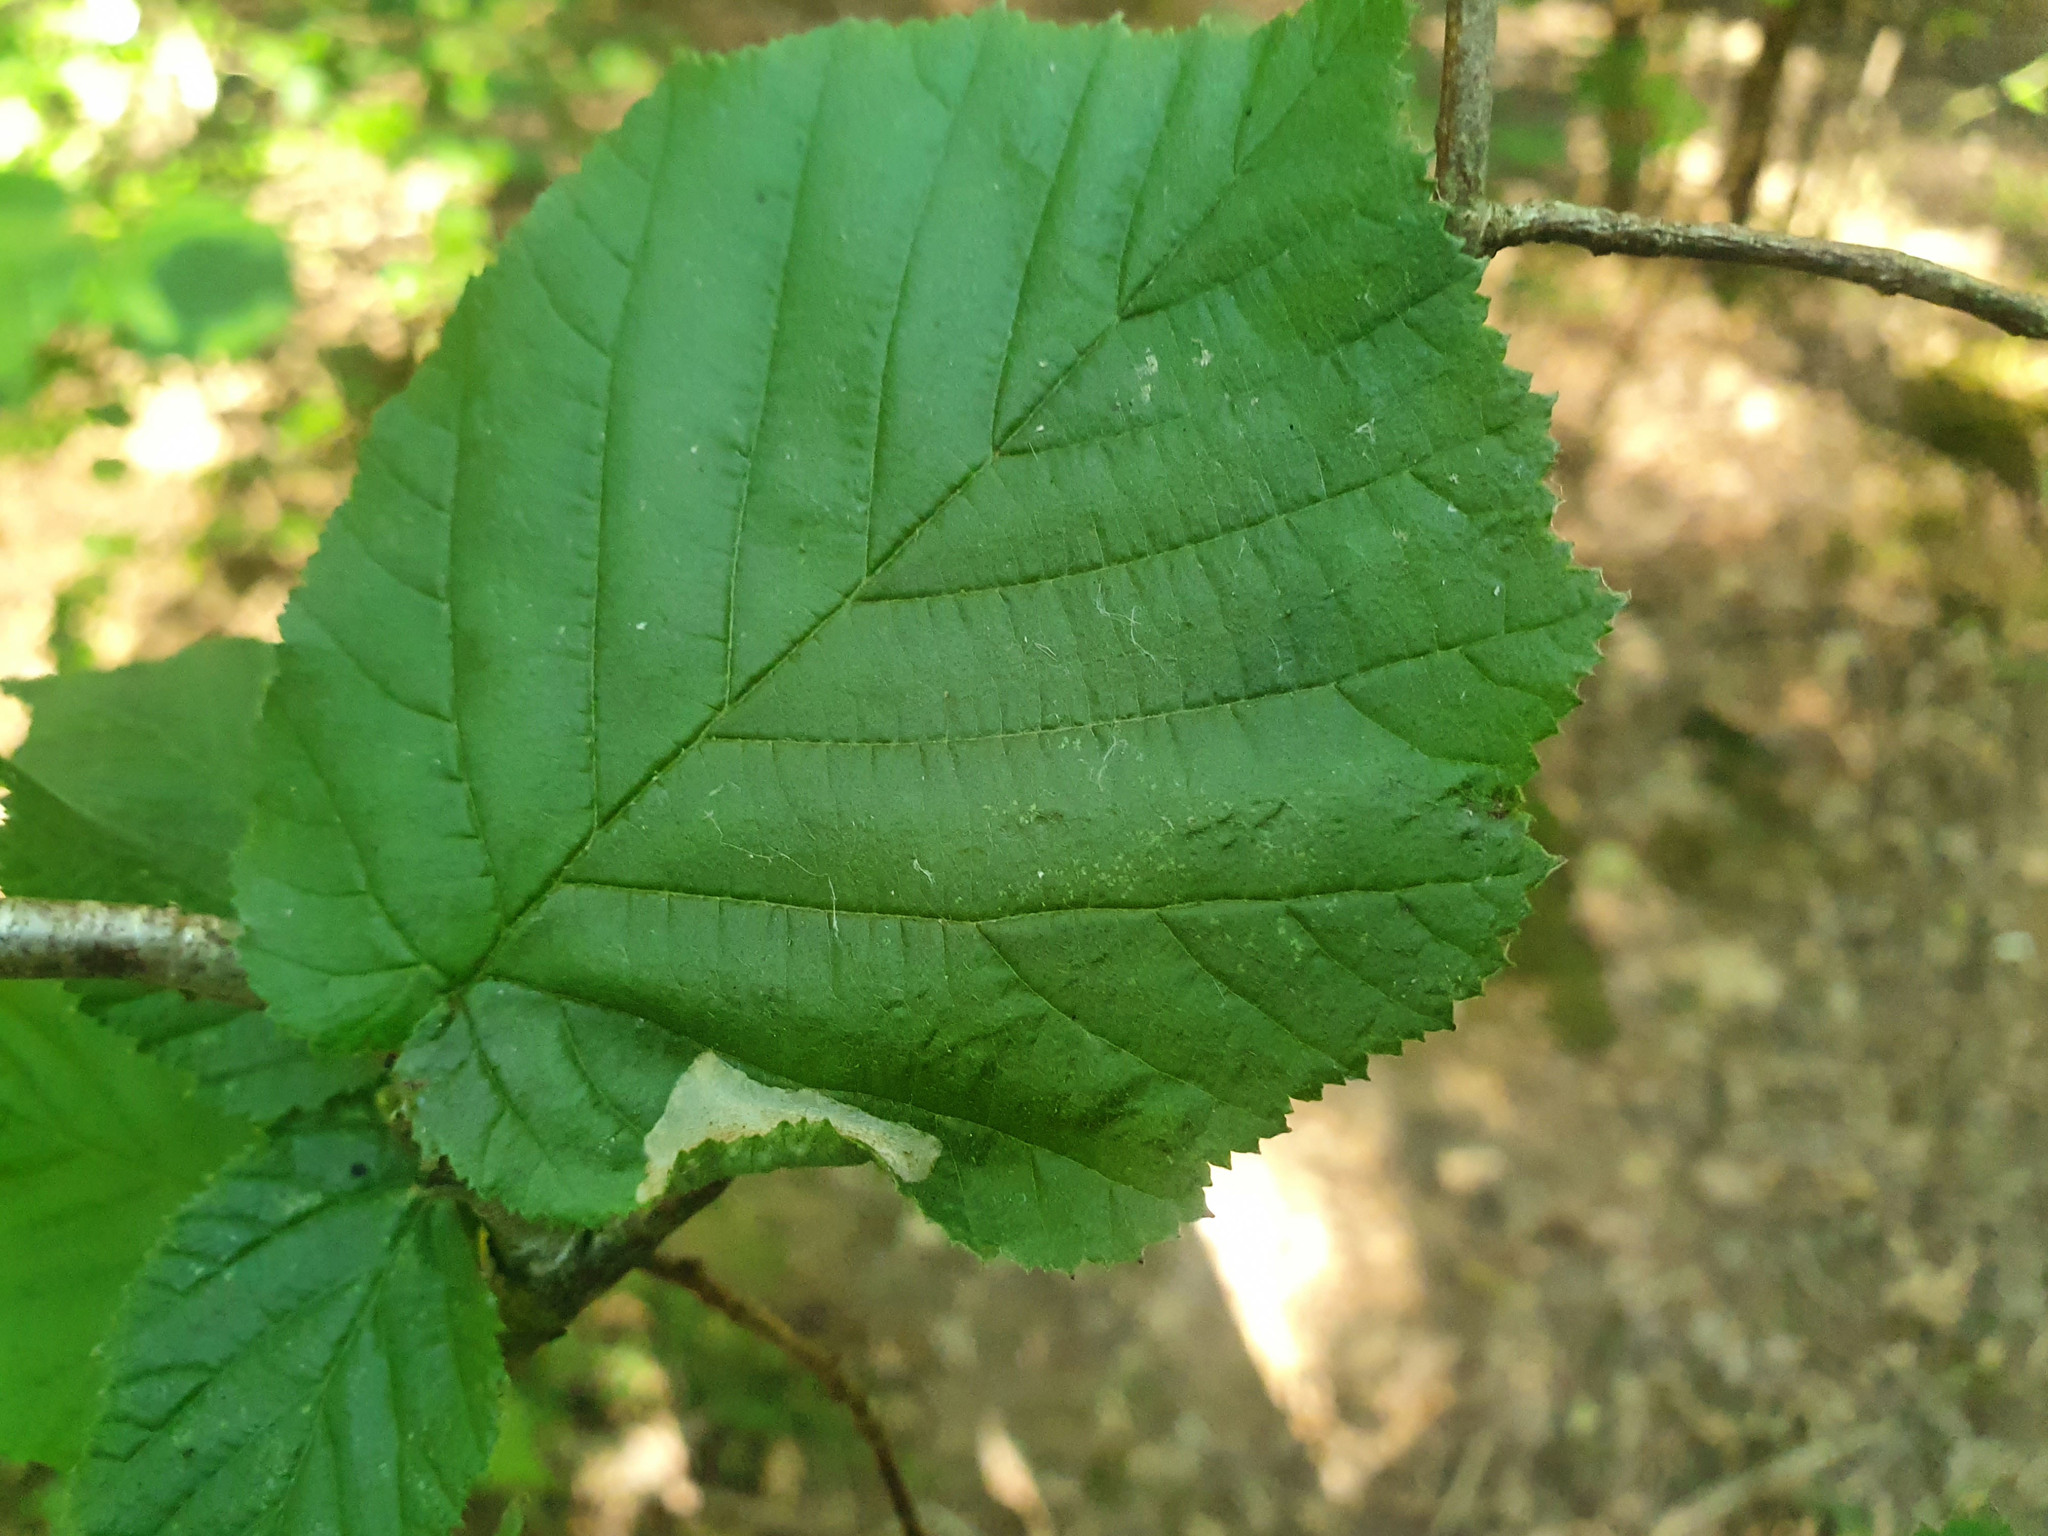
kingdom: Animalia
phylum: Arthropoda
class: Insecta
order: Lepidoptera
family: Gracillariidae
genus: Phyllonorycter
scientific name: Phyllonorycter coryli
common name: Nut-leaf blister moth
